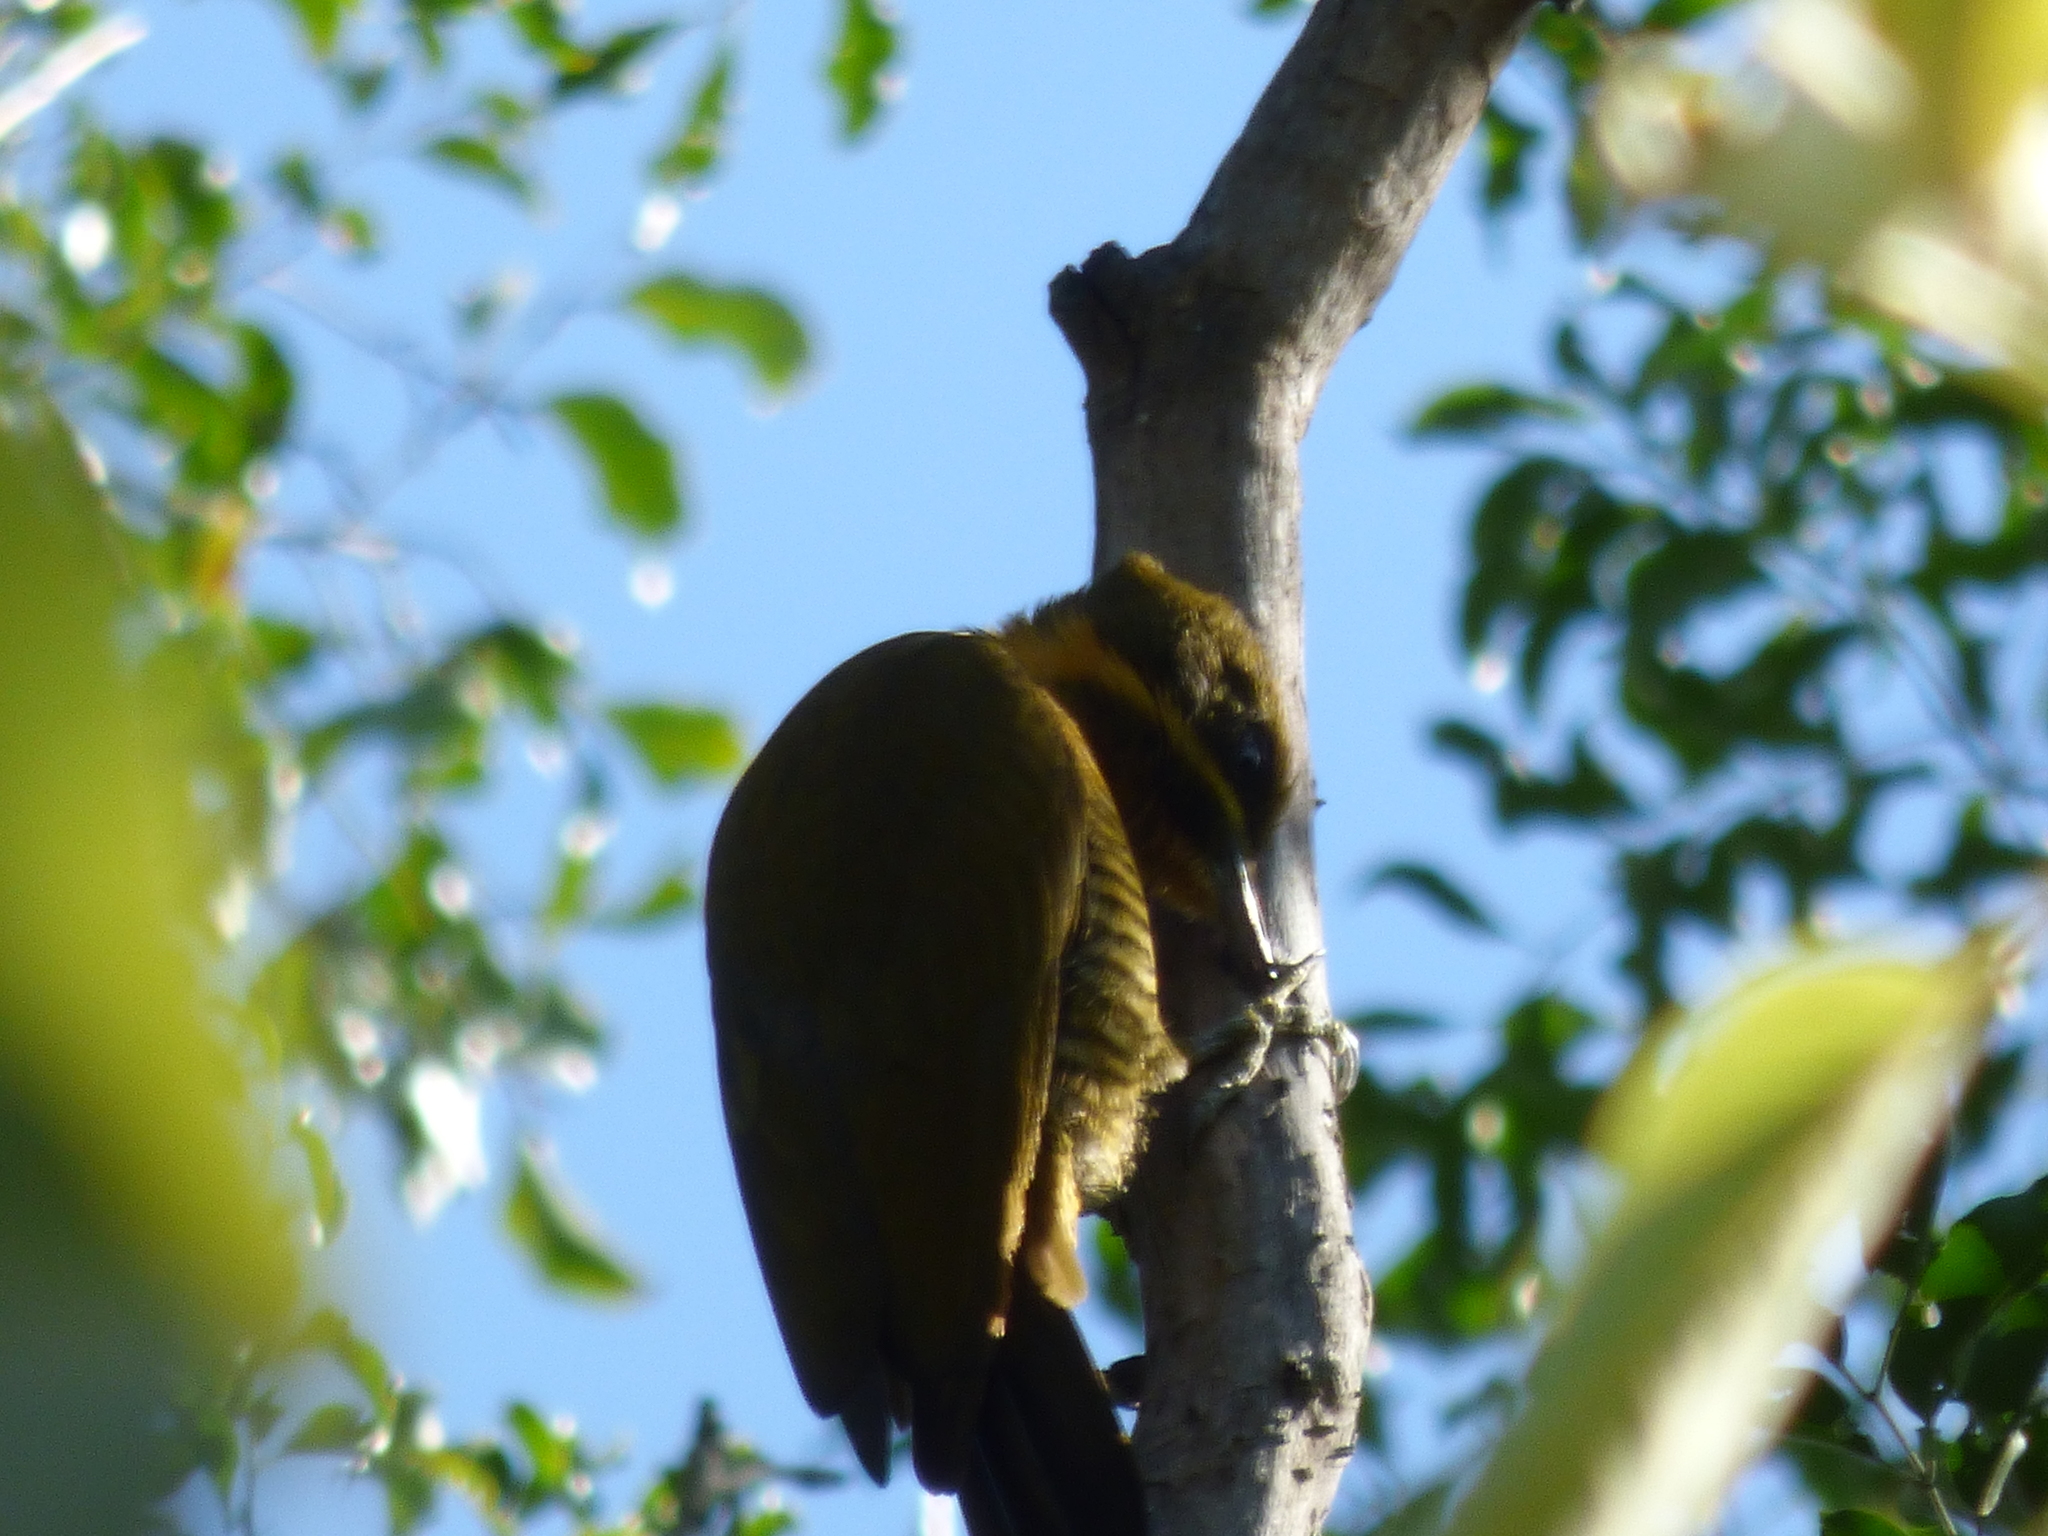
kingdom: Animalia
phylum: Chordata
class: Aves
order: Piciformes
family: Picidae
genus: Piculus
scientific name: Piculus chrysochloros
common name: Golden-green woodpecker
